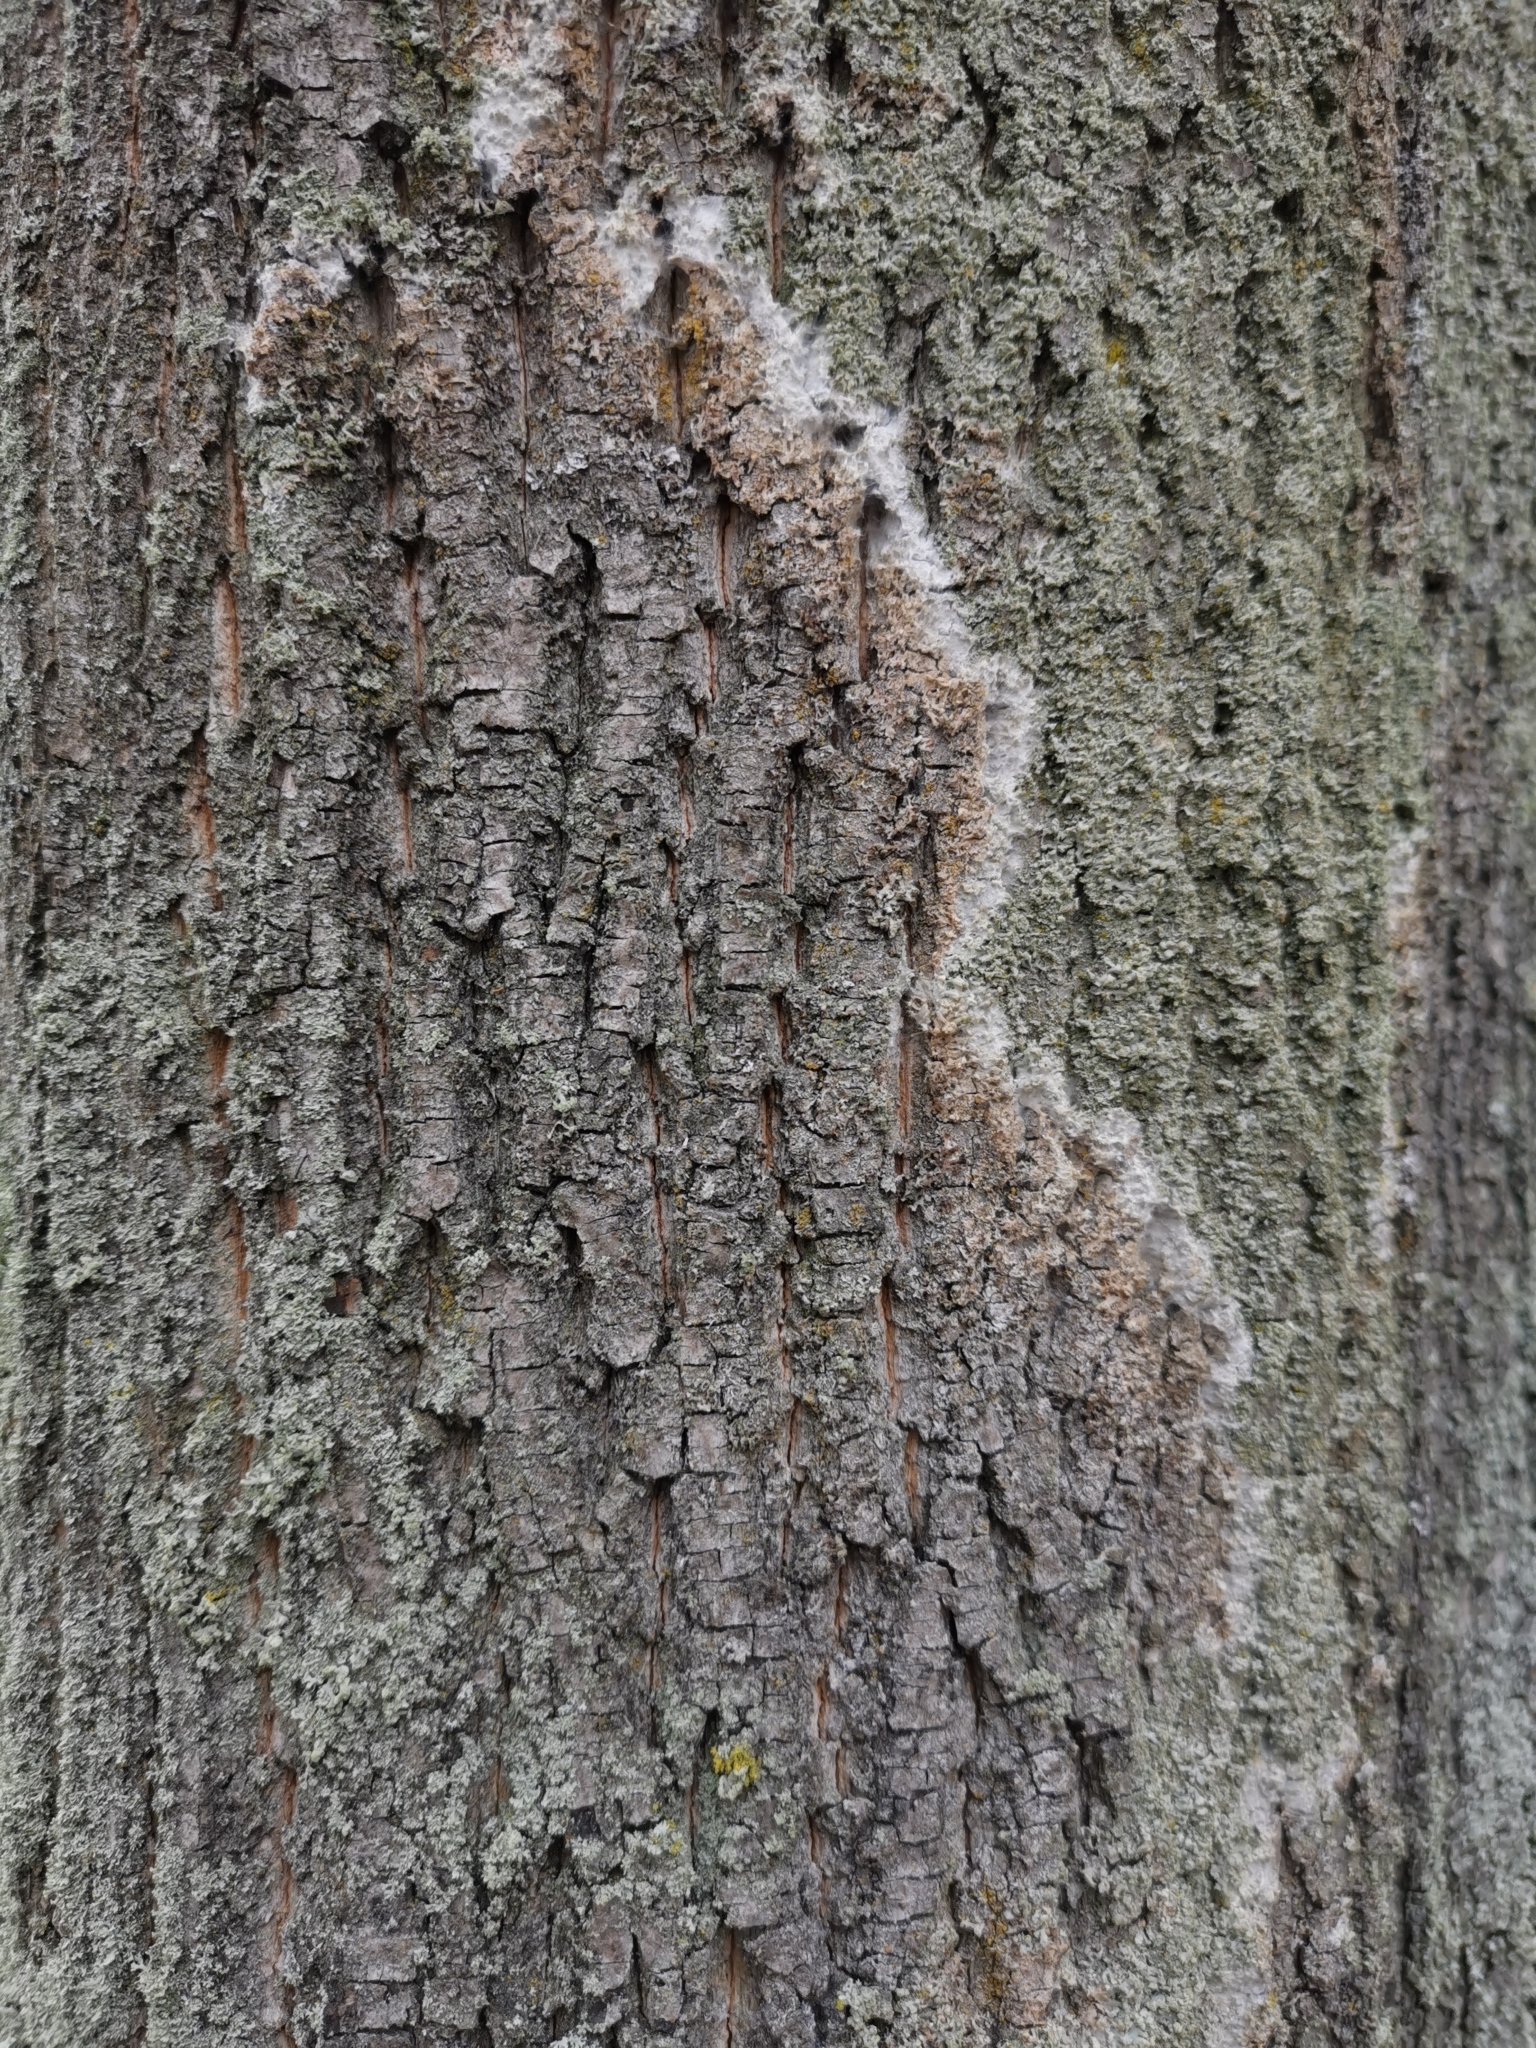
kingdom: Fungi
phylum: Basidiomycota
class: Agaricomycetes
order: Atheliales
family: Atheliaceae
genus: Athelia
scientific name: Athelia arachnoidea
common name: Candelabra duster
